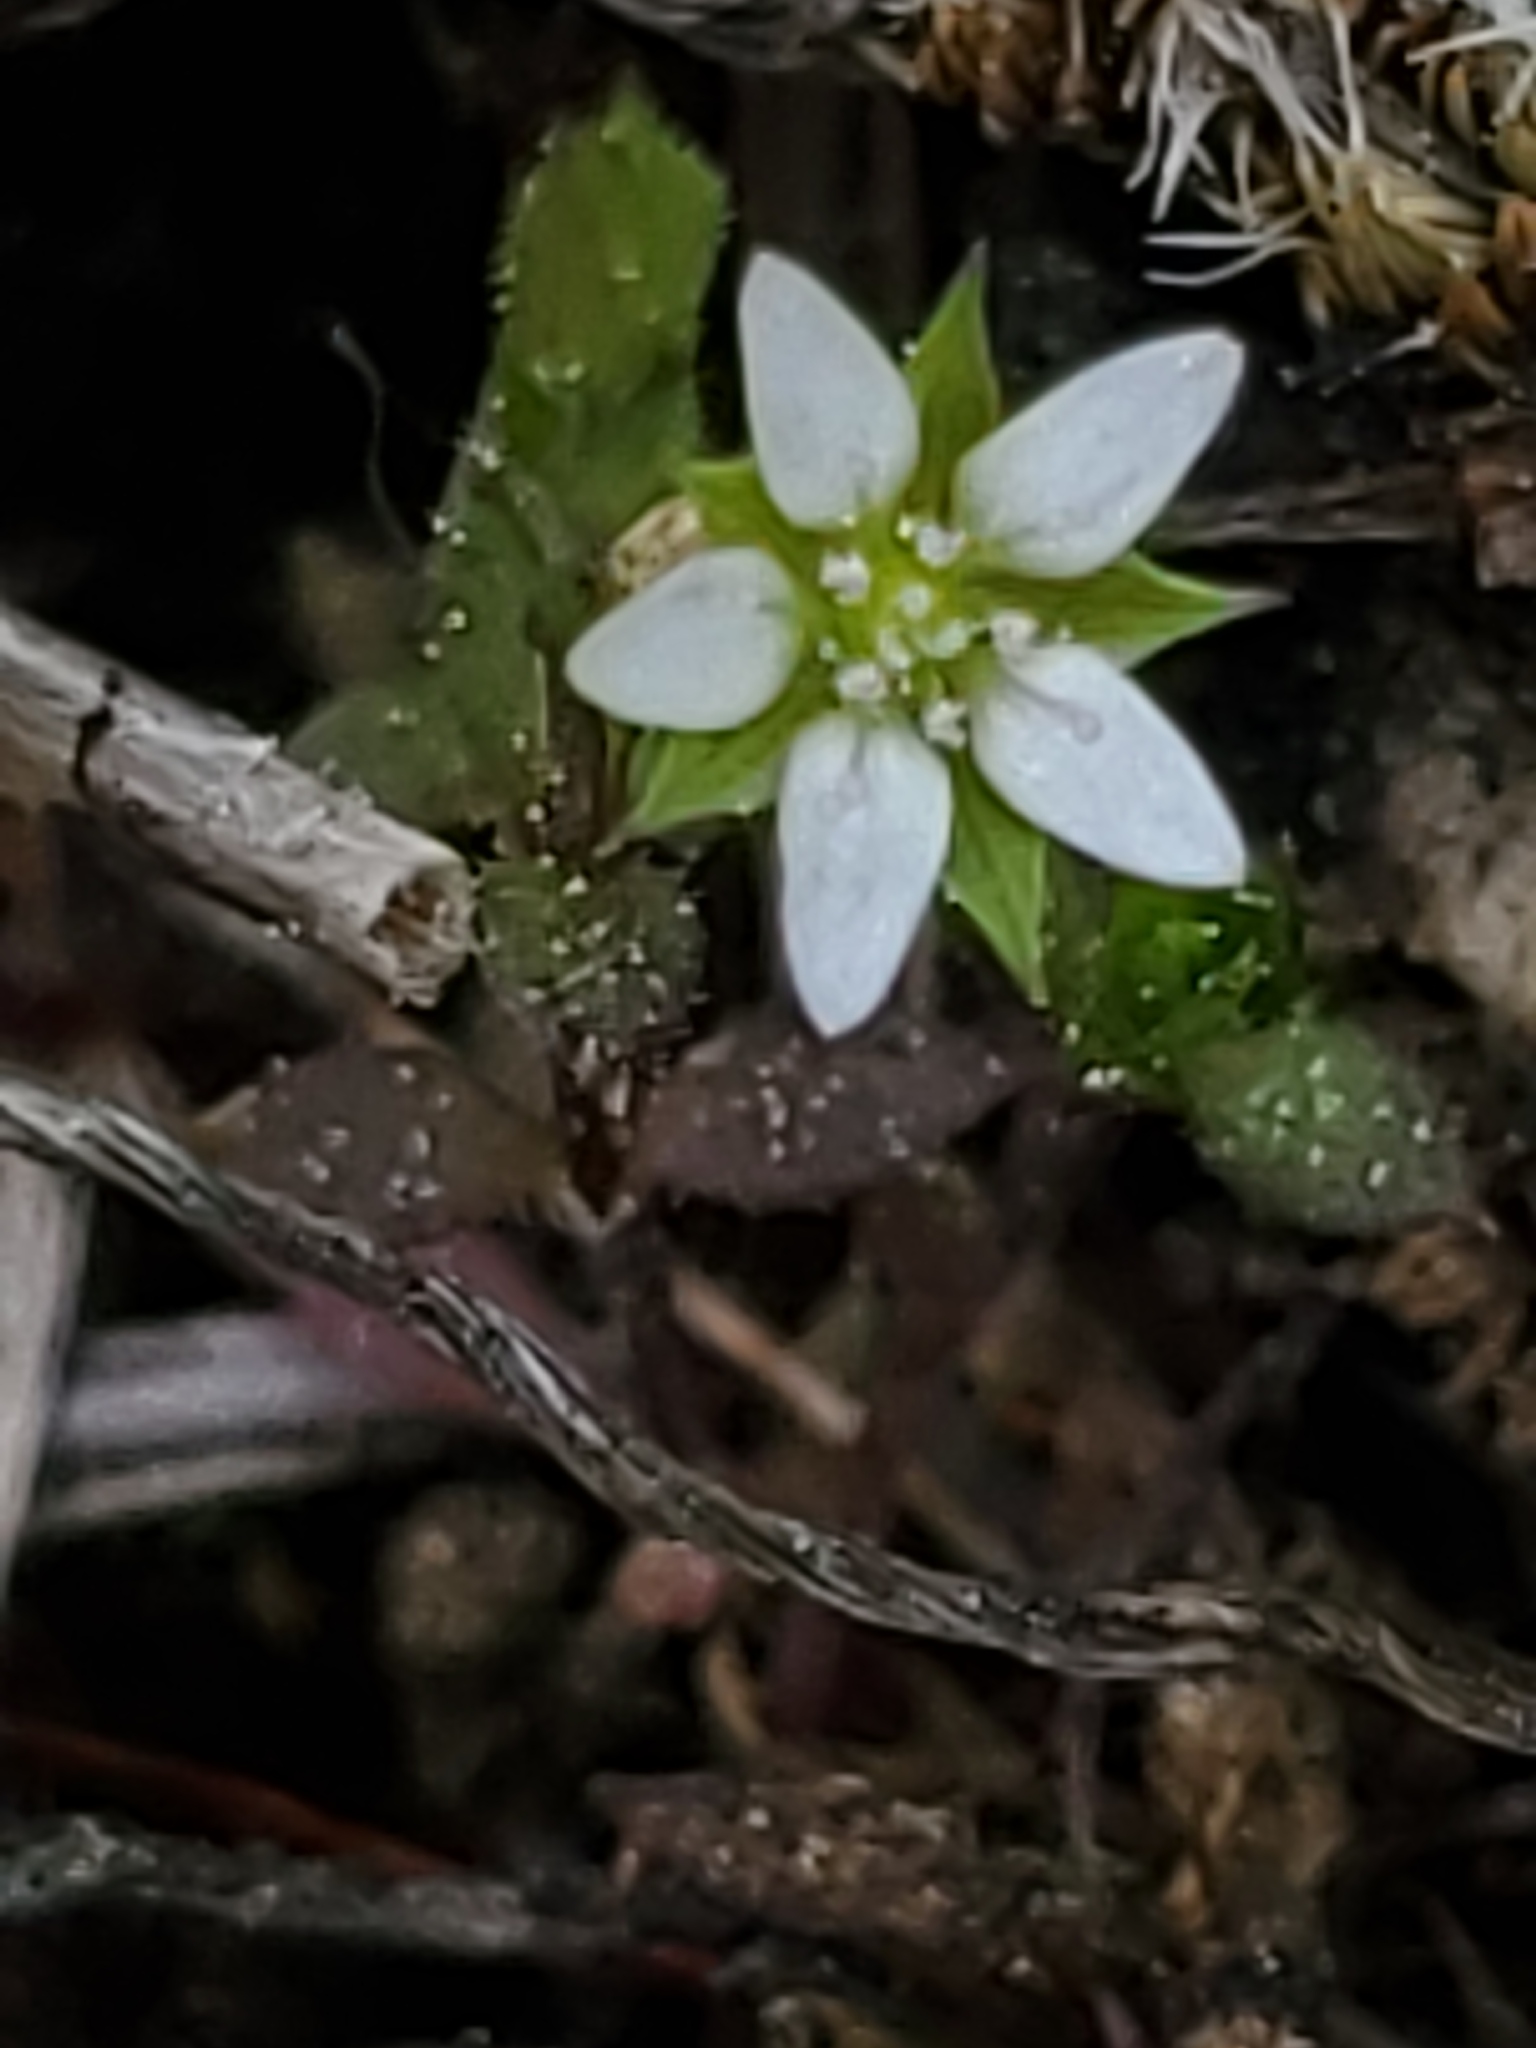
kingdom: Plantae
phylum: Tracheophyta
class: Magnoliopsida
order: Caryophyllales
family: Caryophyllaceae
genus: Arenaria
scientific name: Arenaria serpyllifolia
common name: Thyme-leaved sandwort
